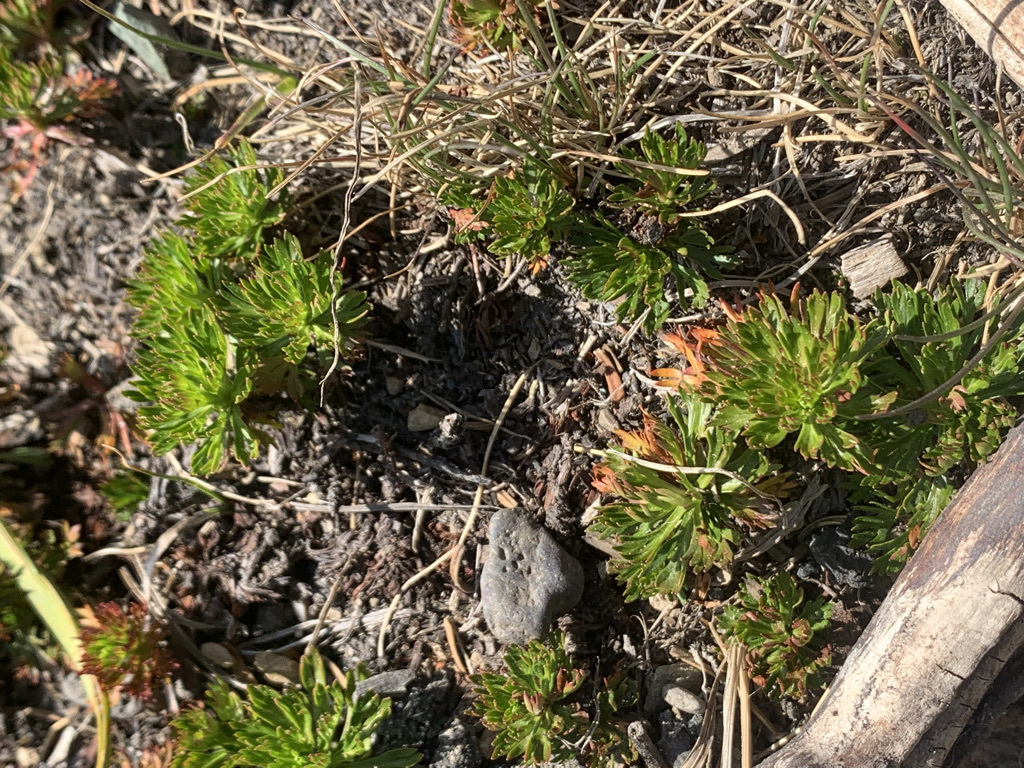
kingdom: Plantae
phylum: Tracheophyta
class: Magnoliopsida
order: Rosales
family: Rosaceae
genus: Luetkea
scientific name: Luetkea pectinata
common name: Partridgefoot
